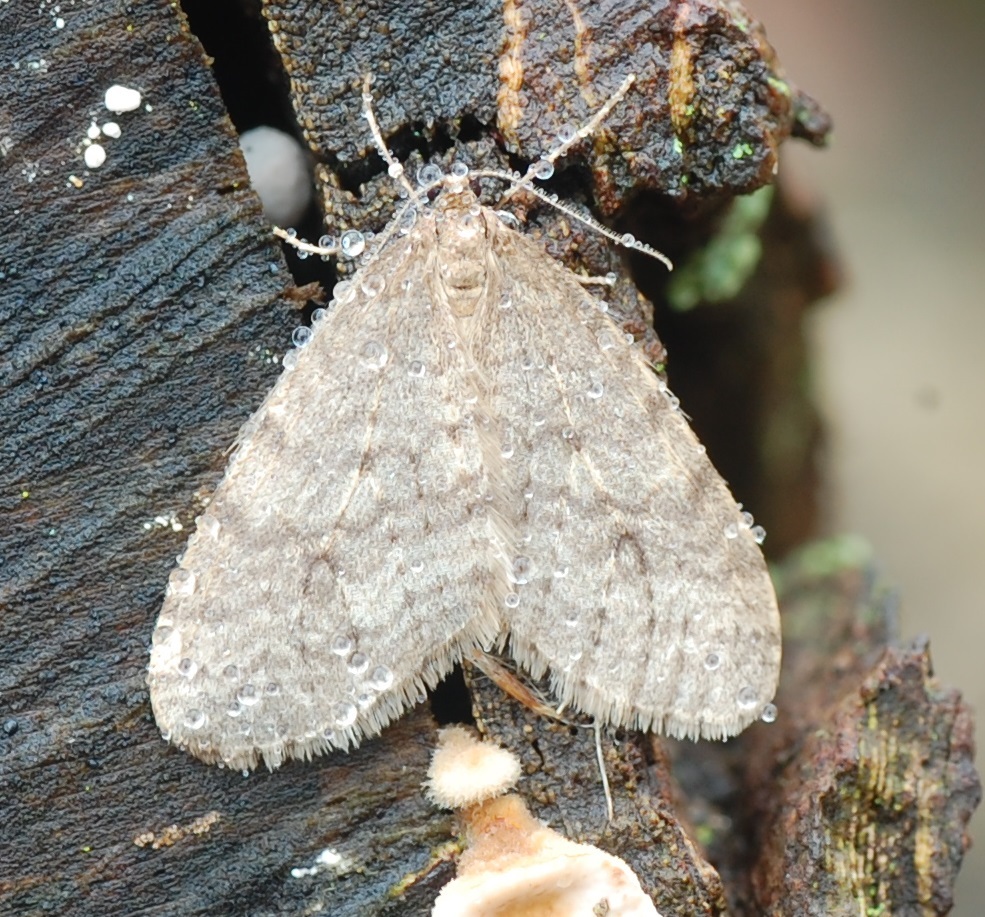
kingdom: Animalia
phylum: Arthropoda
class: Insecta
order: Lepidoptera
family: Geometridae
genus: Operophtera
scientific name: Operophtera bruceata
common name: Bruce spanworm
